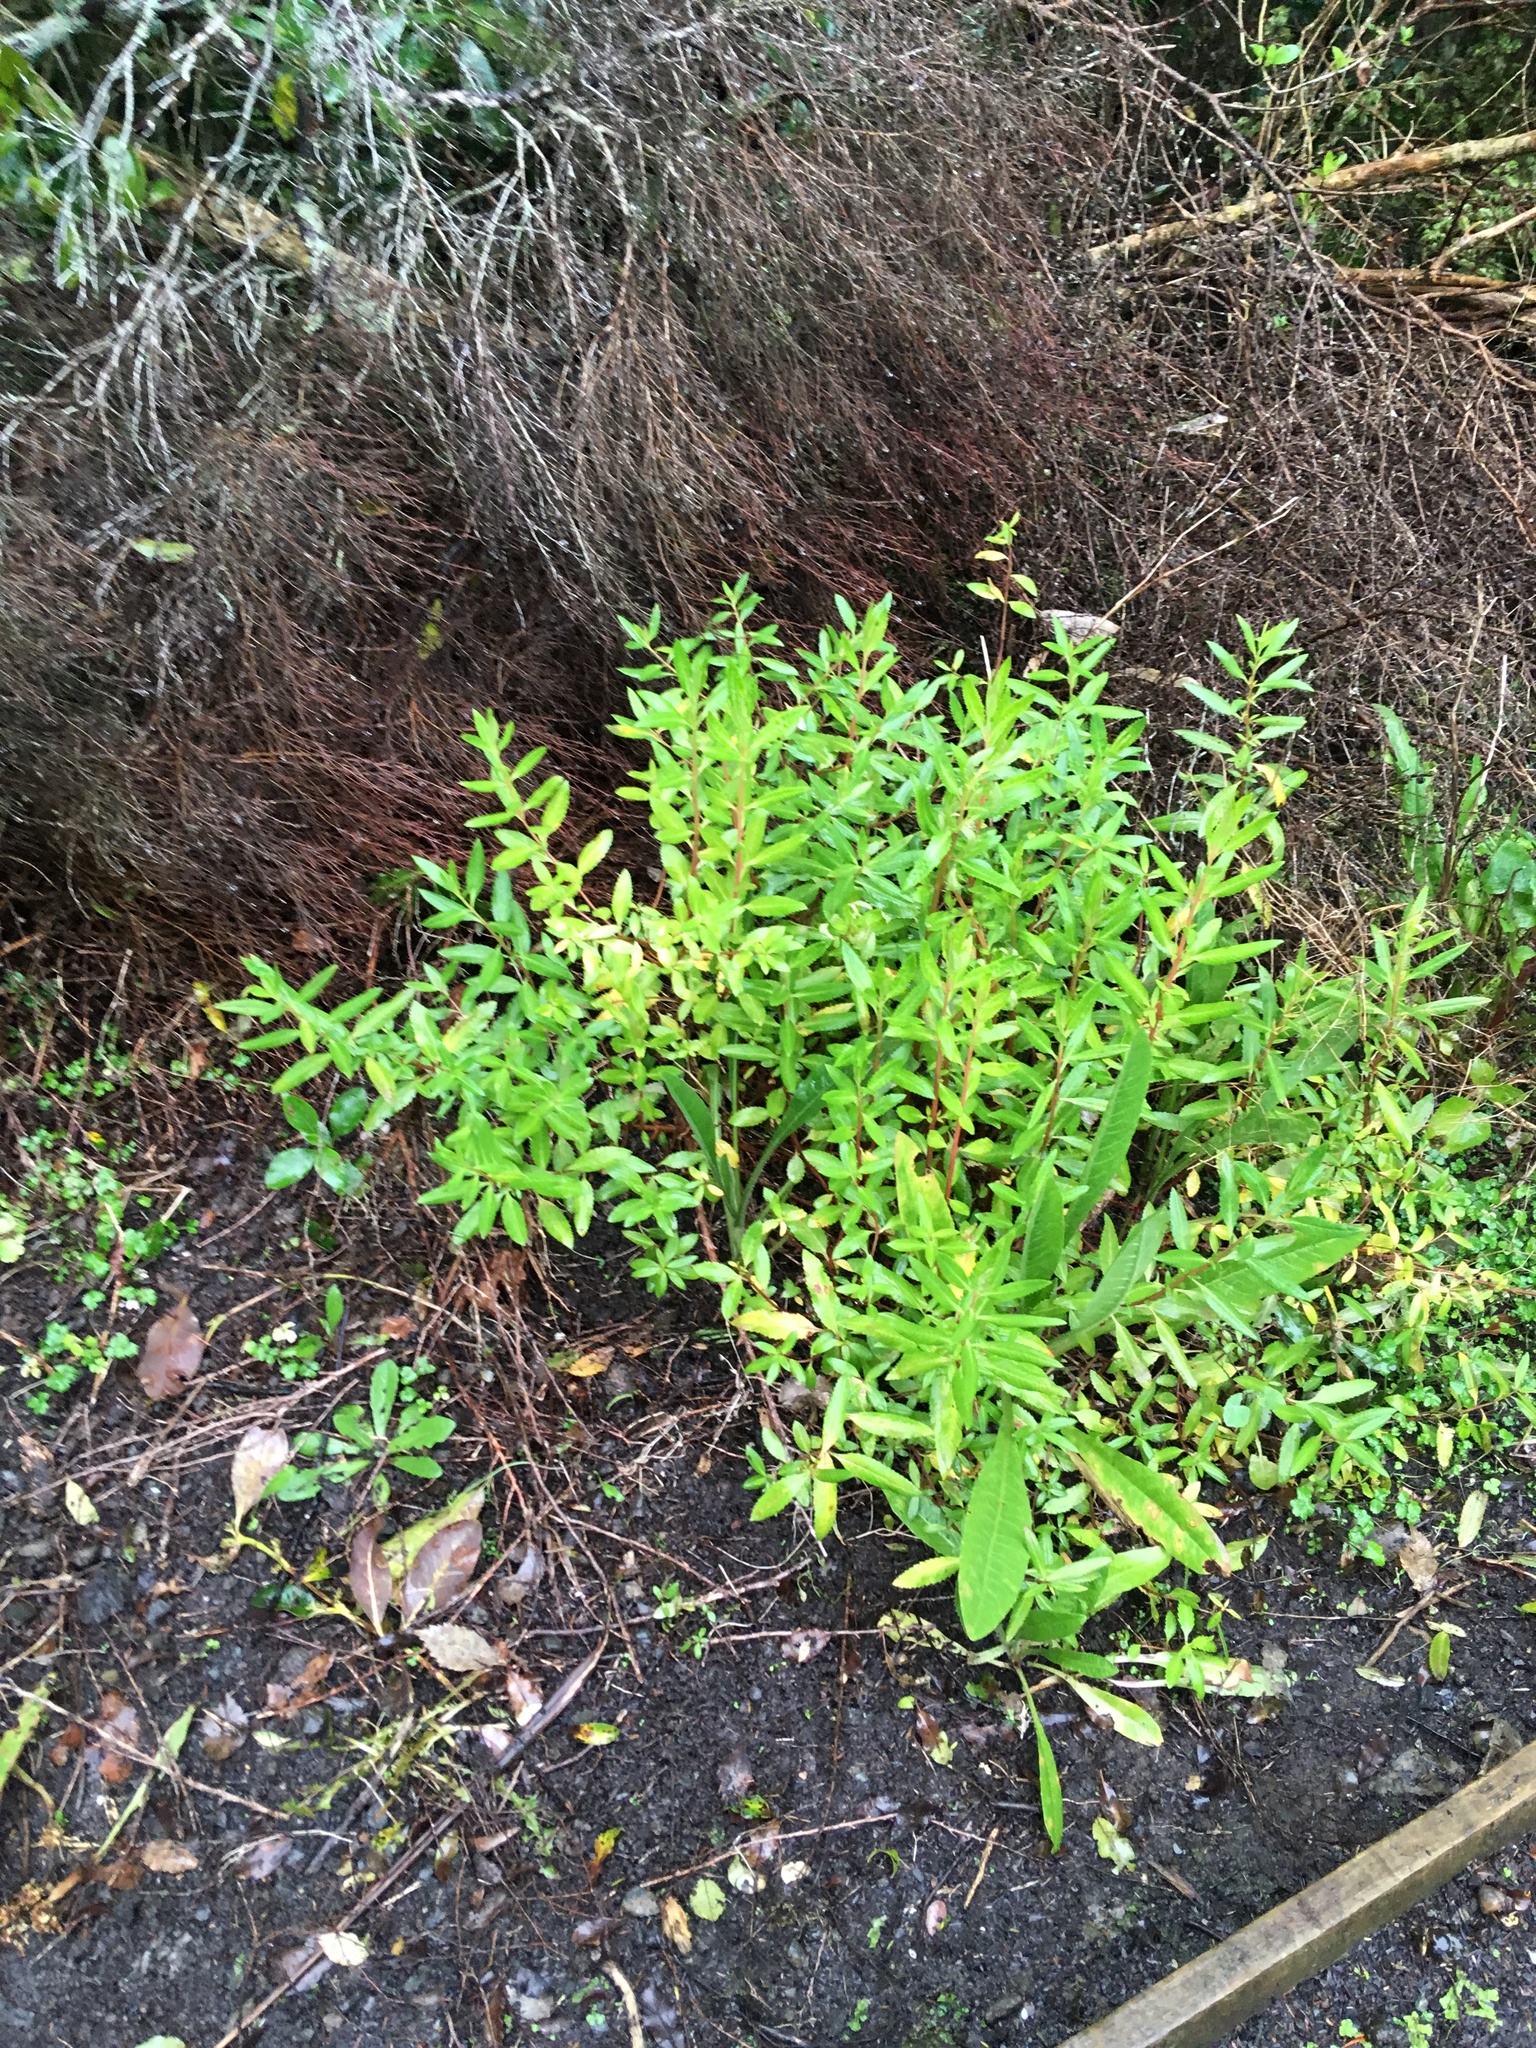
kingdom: Plantae
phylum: Tracheophyta
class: Magnoliopsida
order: Saxifragales
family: Haloragaceae
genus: Haloragis
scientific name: Haloragis erecta
